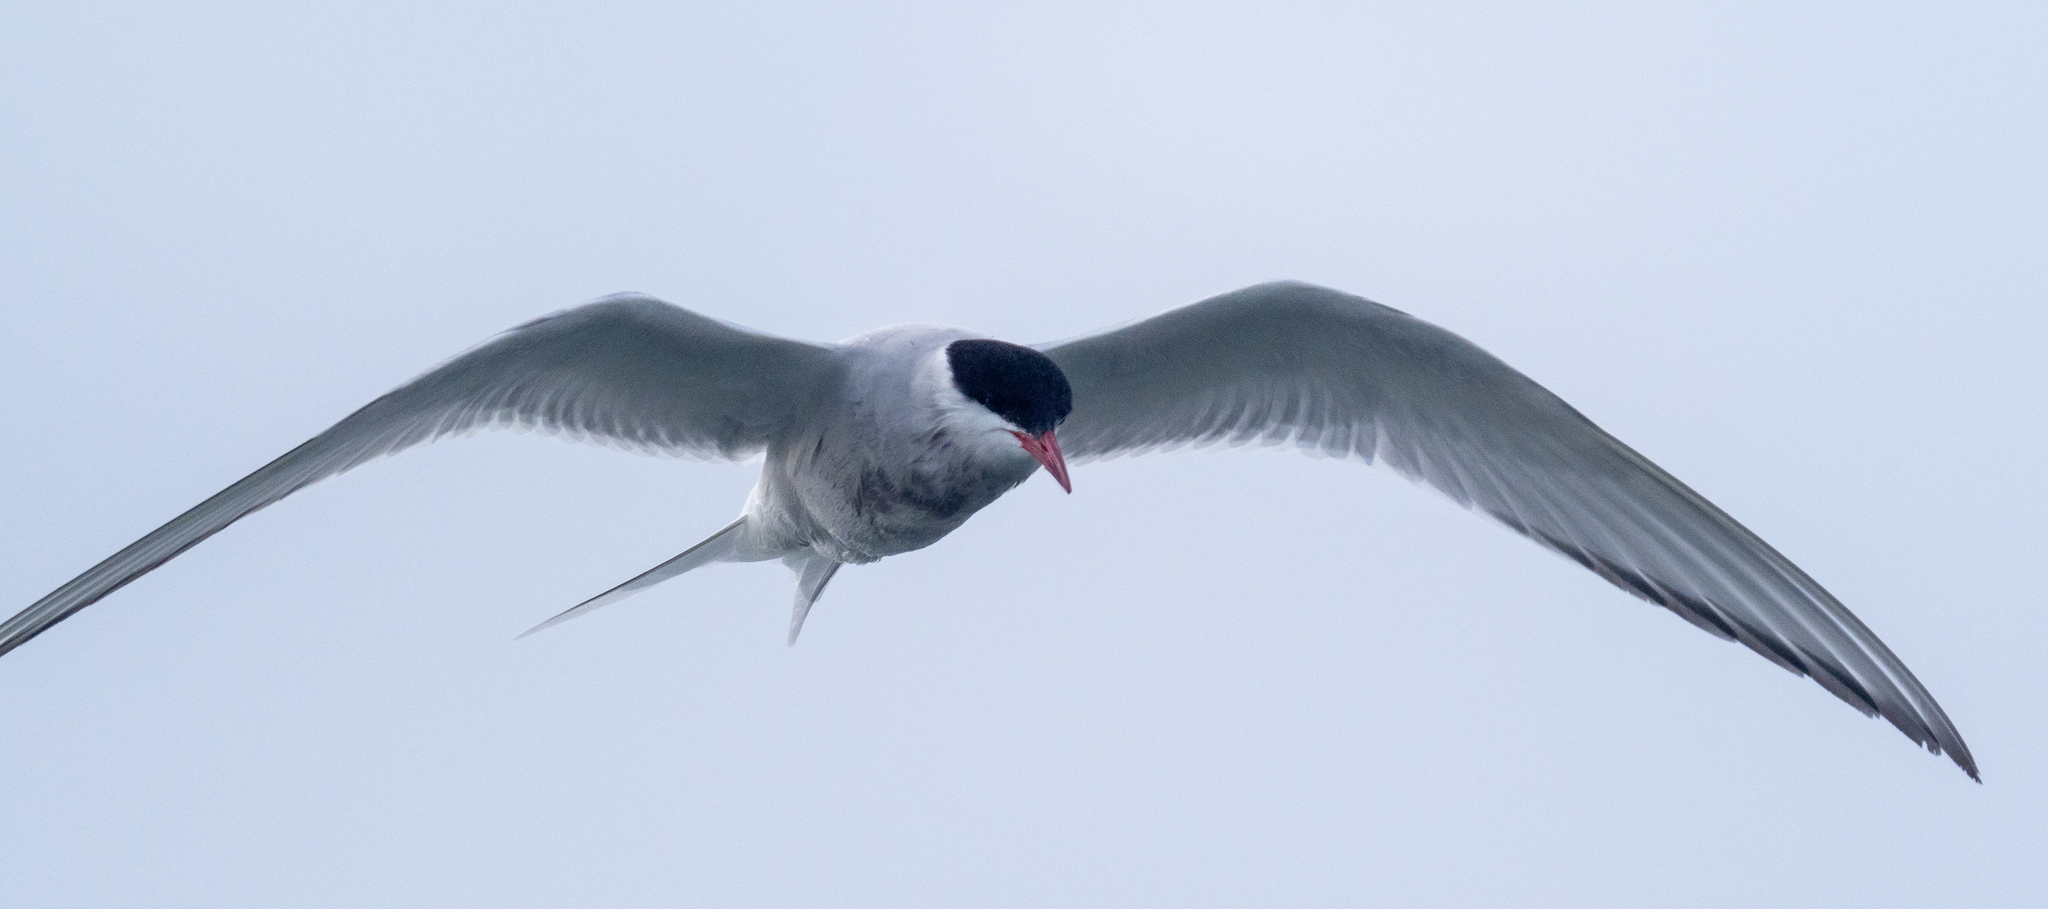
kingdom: Animalia
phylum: Chordata
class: Aves
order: Charadriiformes
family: Laridae
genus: Sterna
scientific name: Sterna paradisaea
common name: Arctic tern
